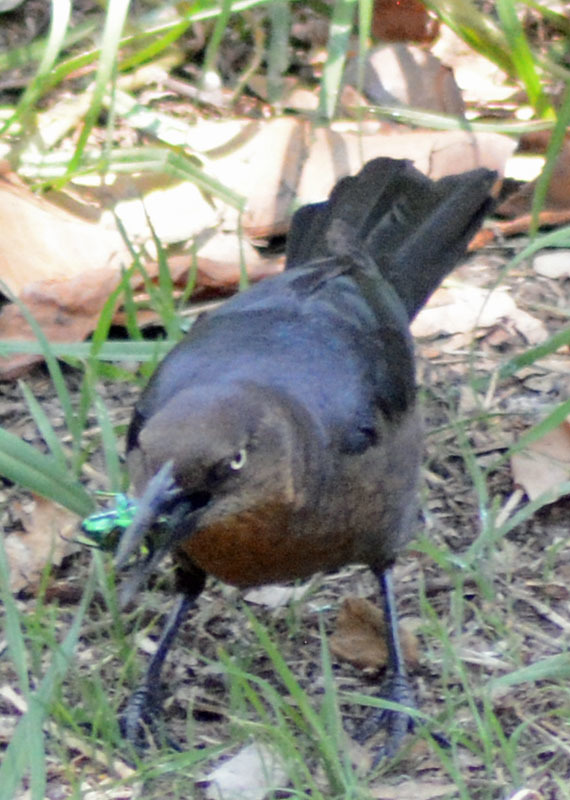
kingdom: Animalia
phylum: Chordata
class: Aves
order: Passeriformes
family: Icteridae
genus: Quiscalus
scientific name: Quiscalus mexicanus
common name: Great-tailed grackle
